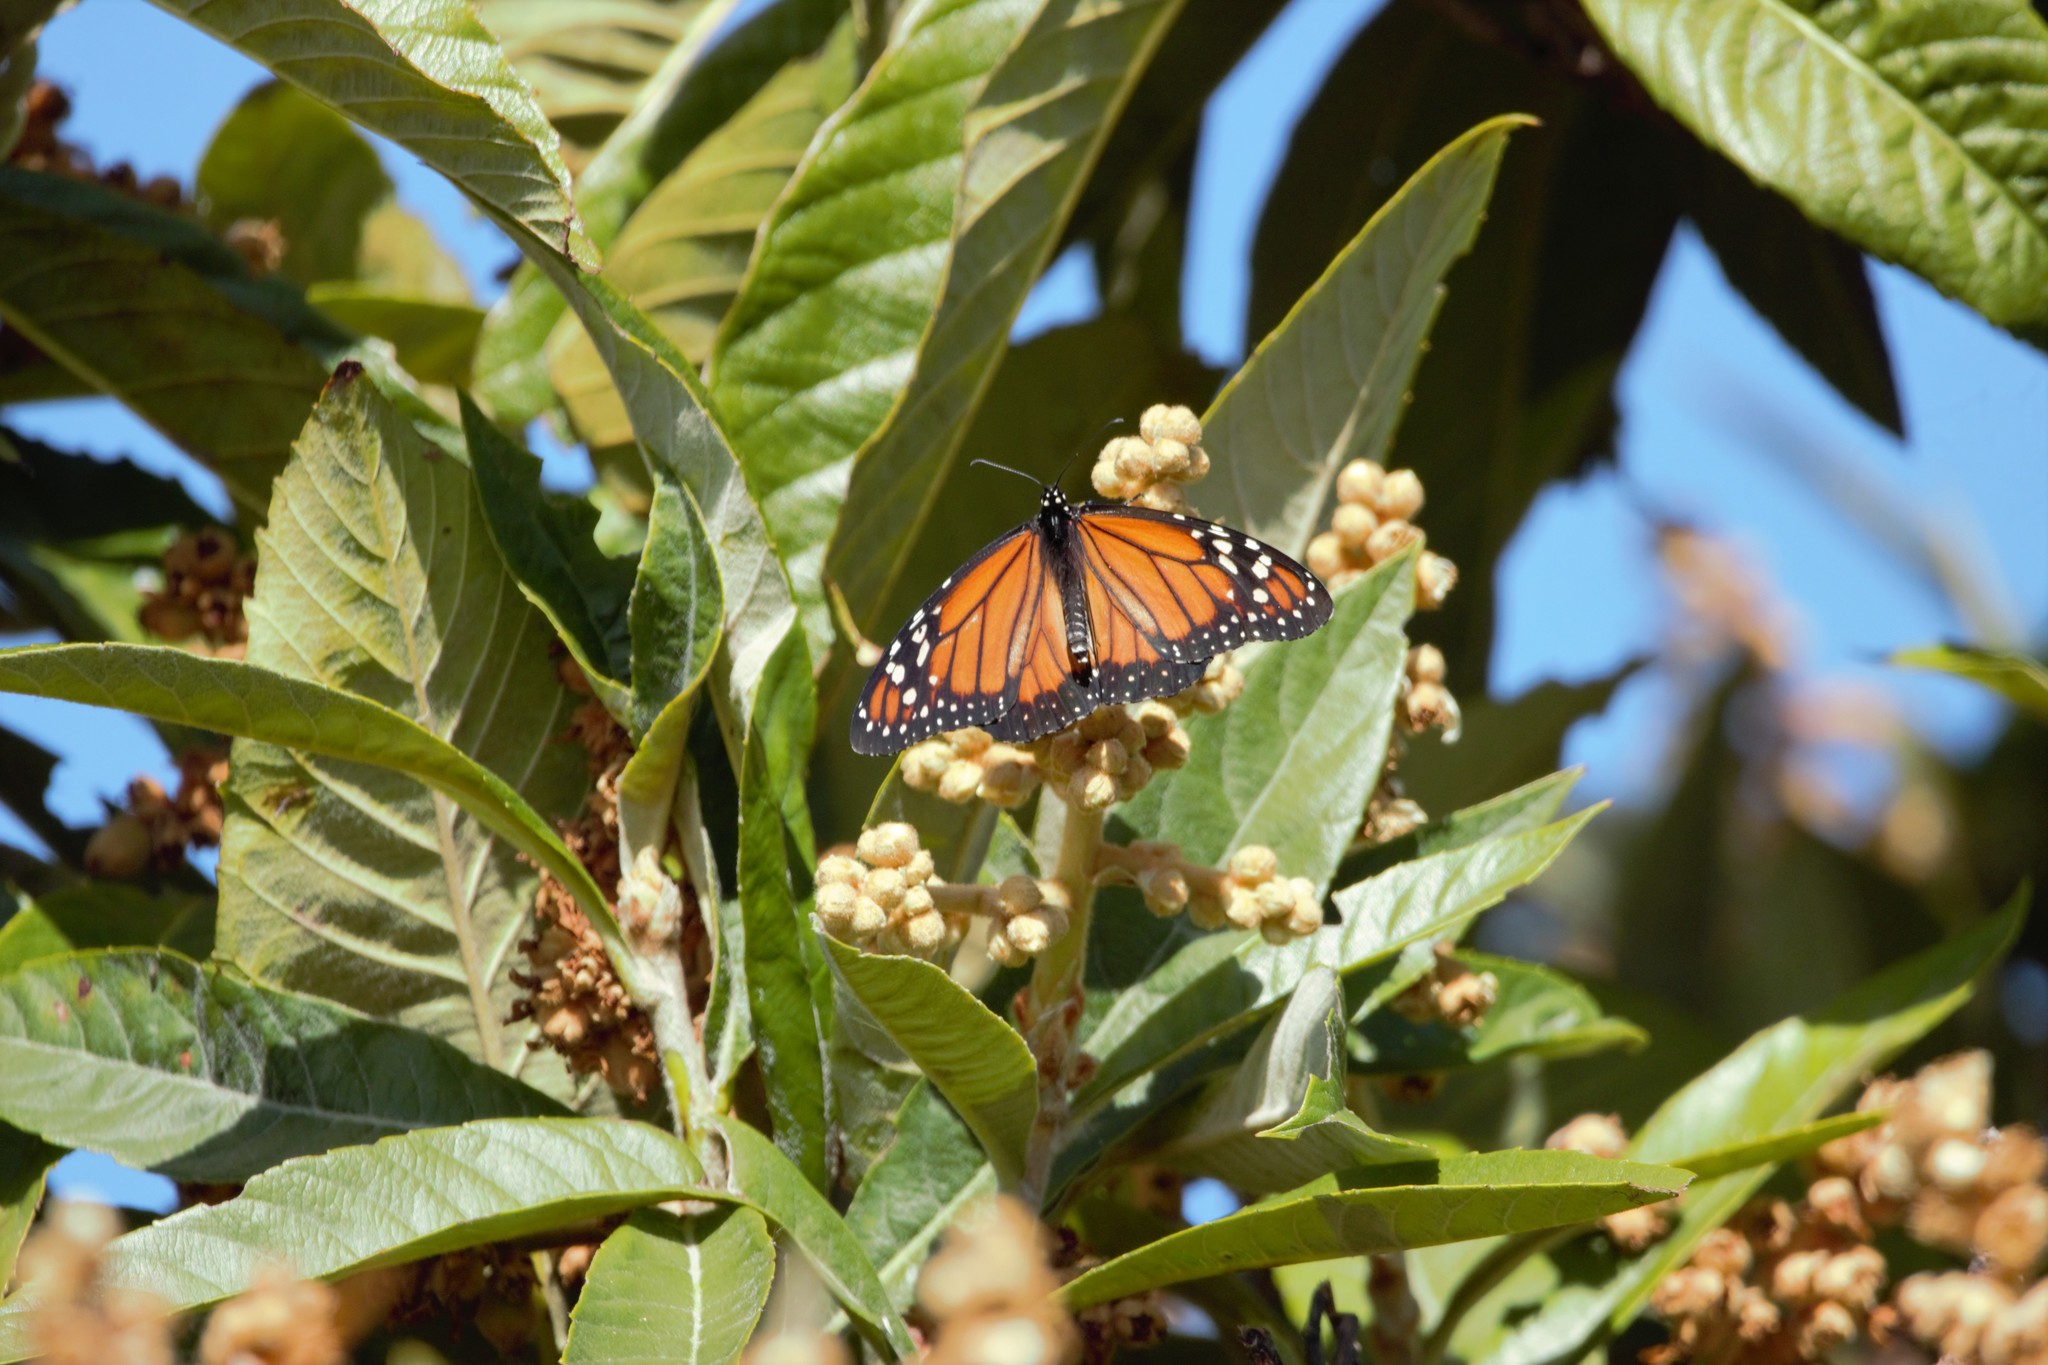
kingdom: Animalia
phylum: Arthropoda
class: Insecta
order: Lepidoptera
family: Nymphalidae
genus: Danaus
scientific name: Danaus erippus
